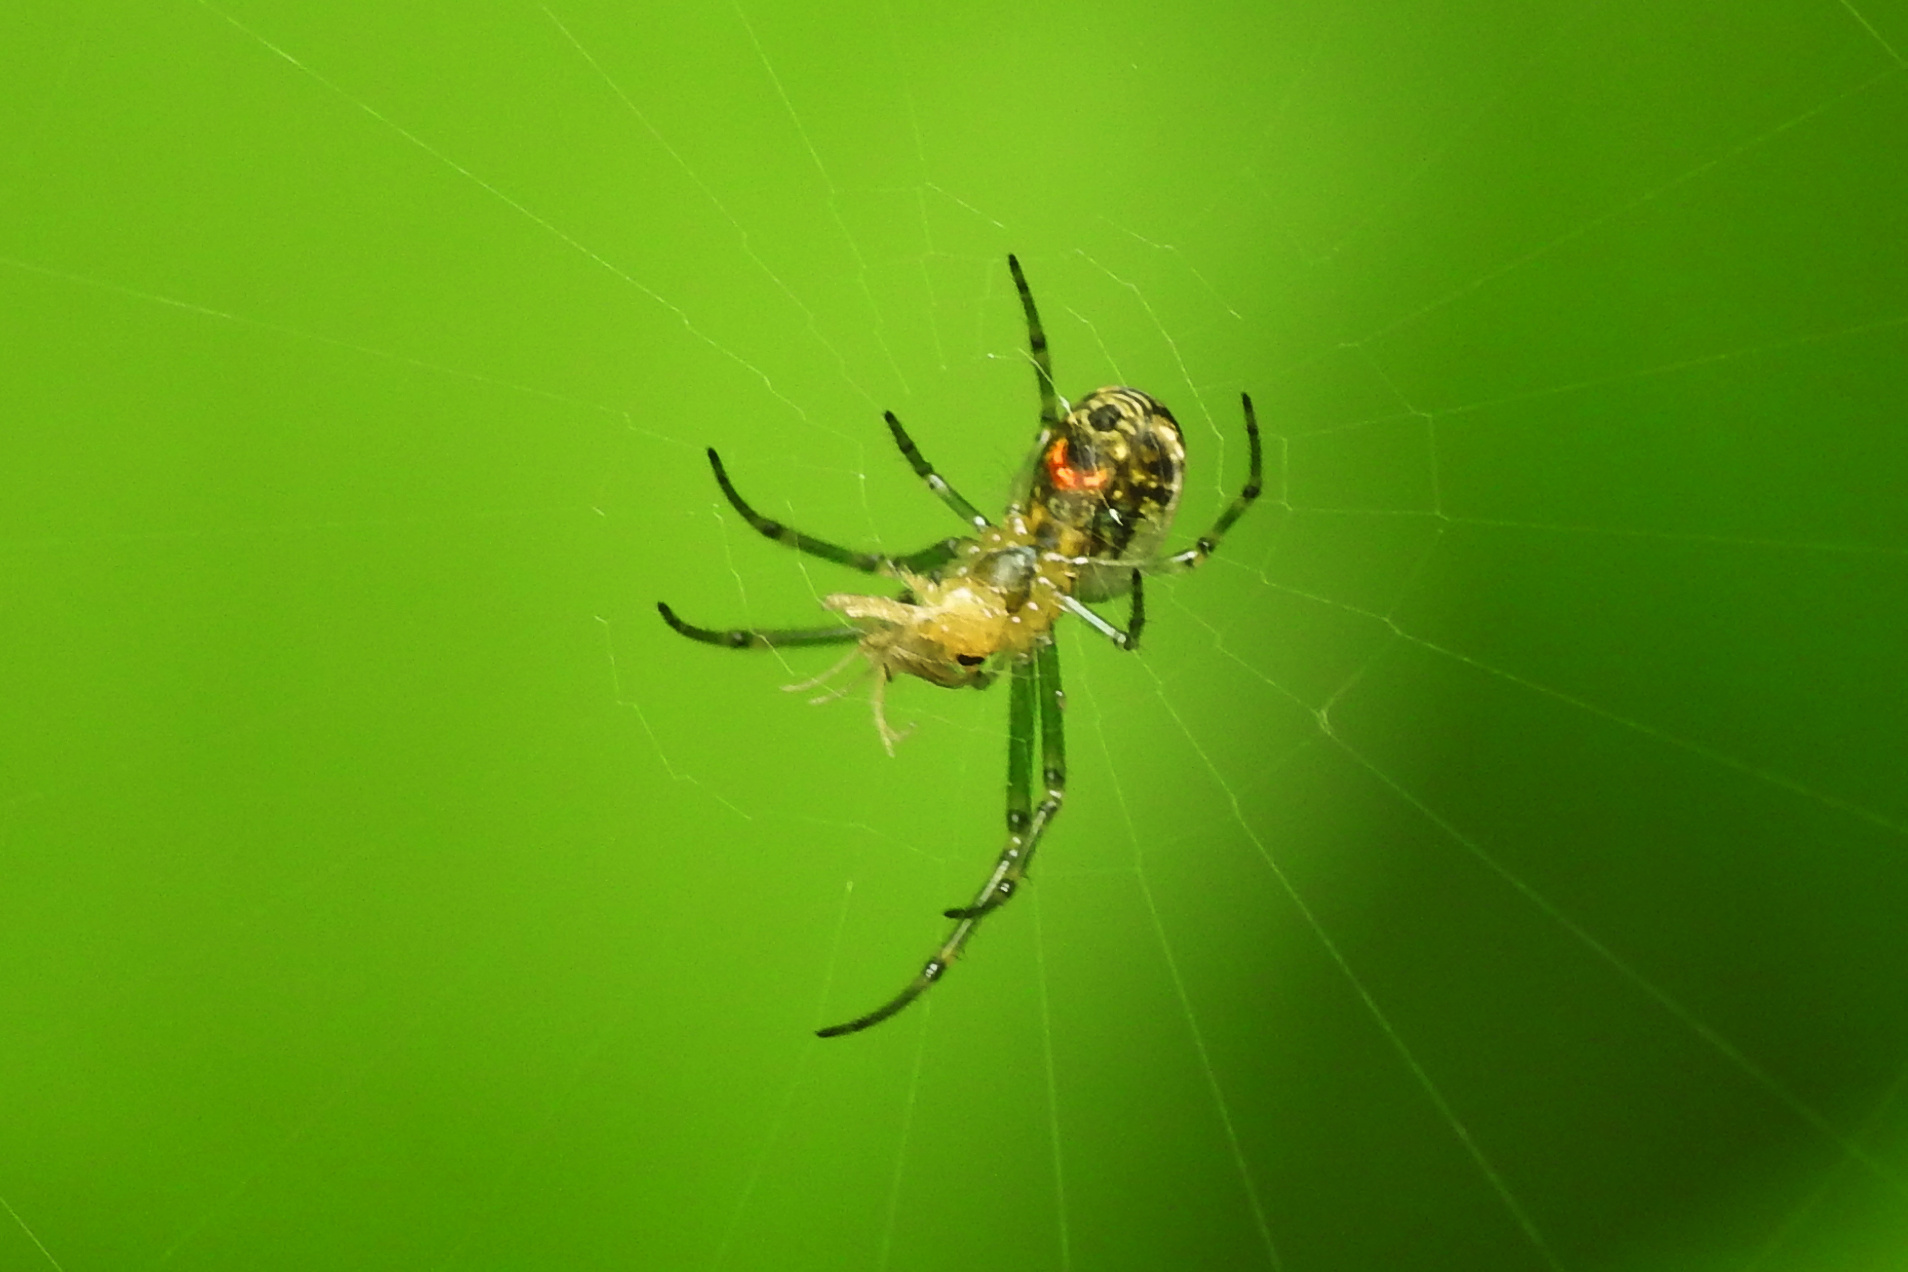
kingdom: Animalia
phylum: Arthropoda
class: Arachnida
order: Araneae
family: Tetragnathidae
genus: Leucauge
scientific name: Leucauge venusta
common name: Longjawed orb weavers
